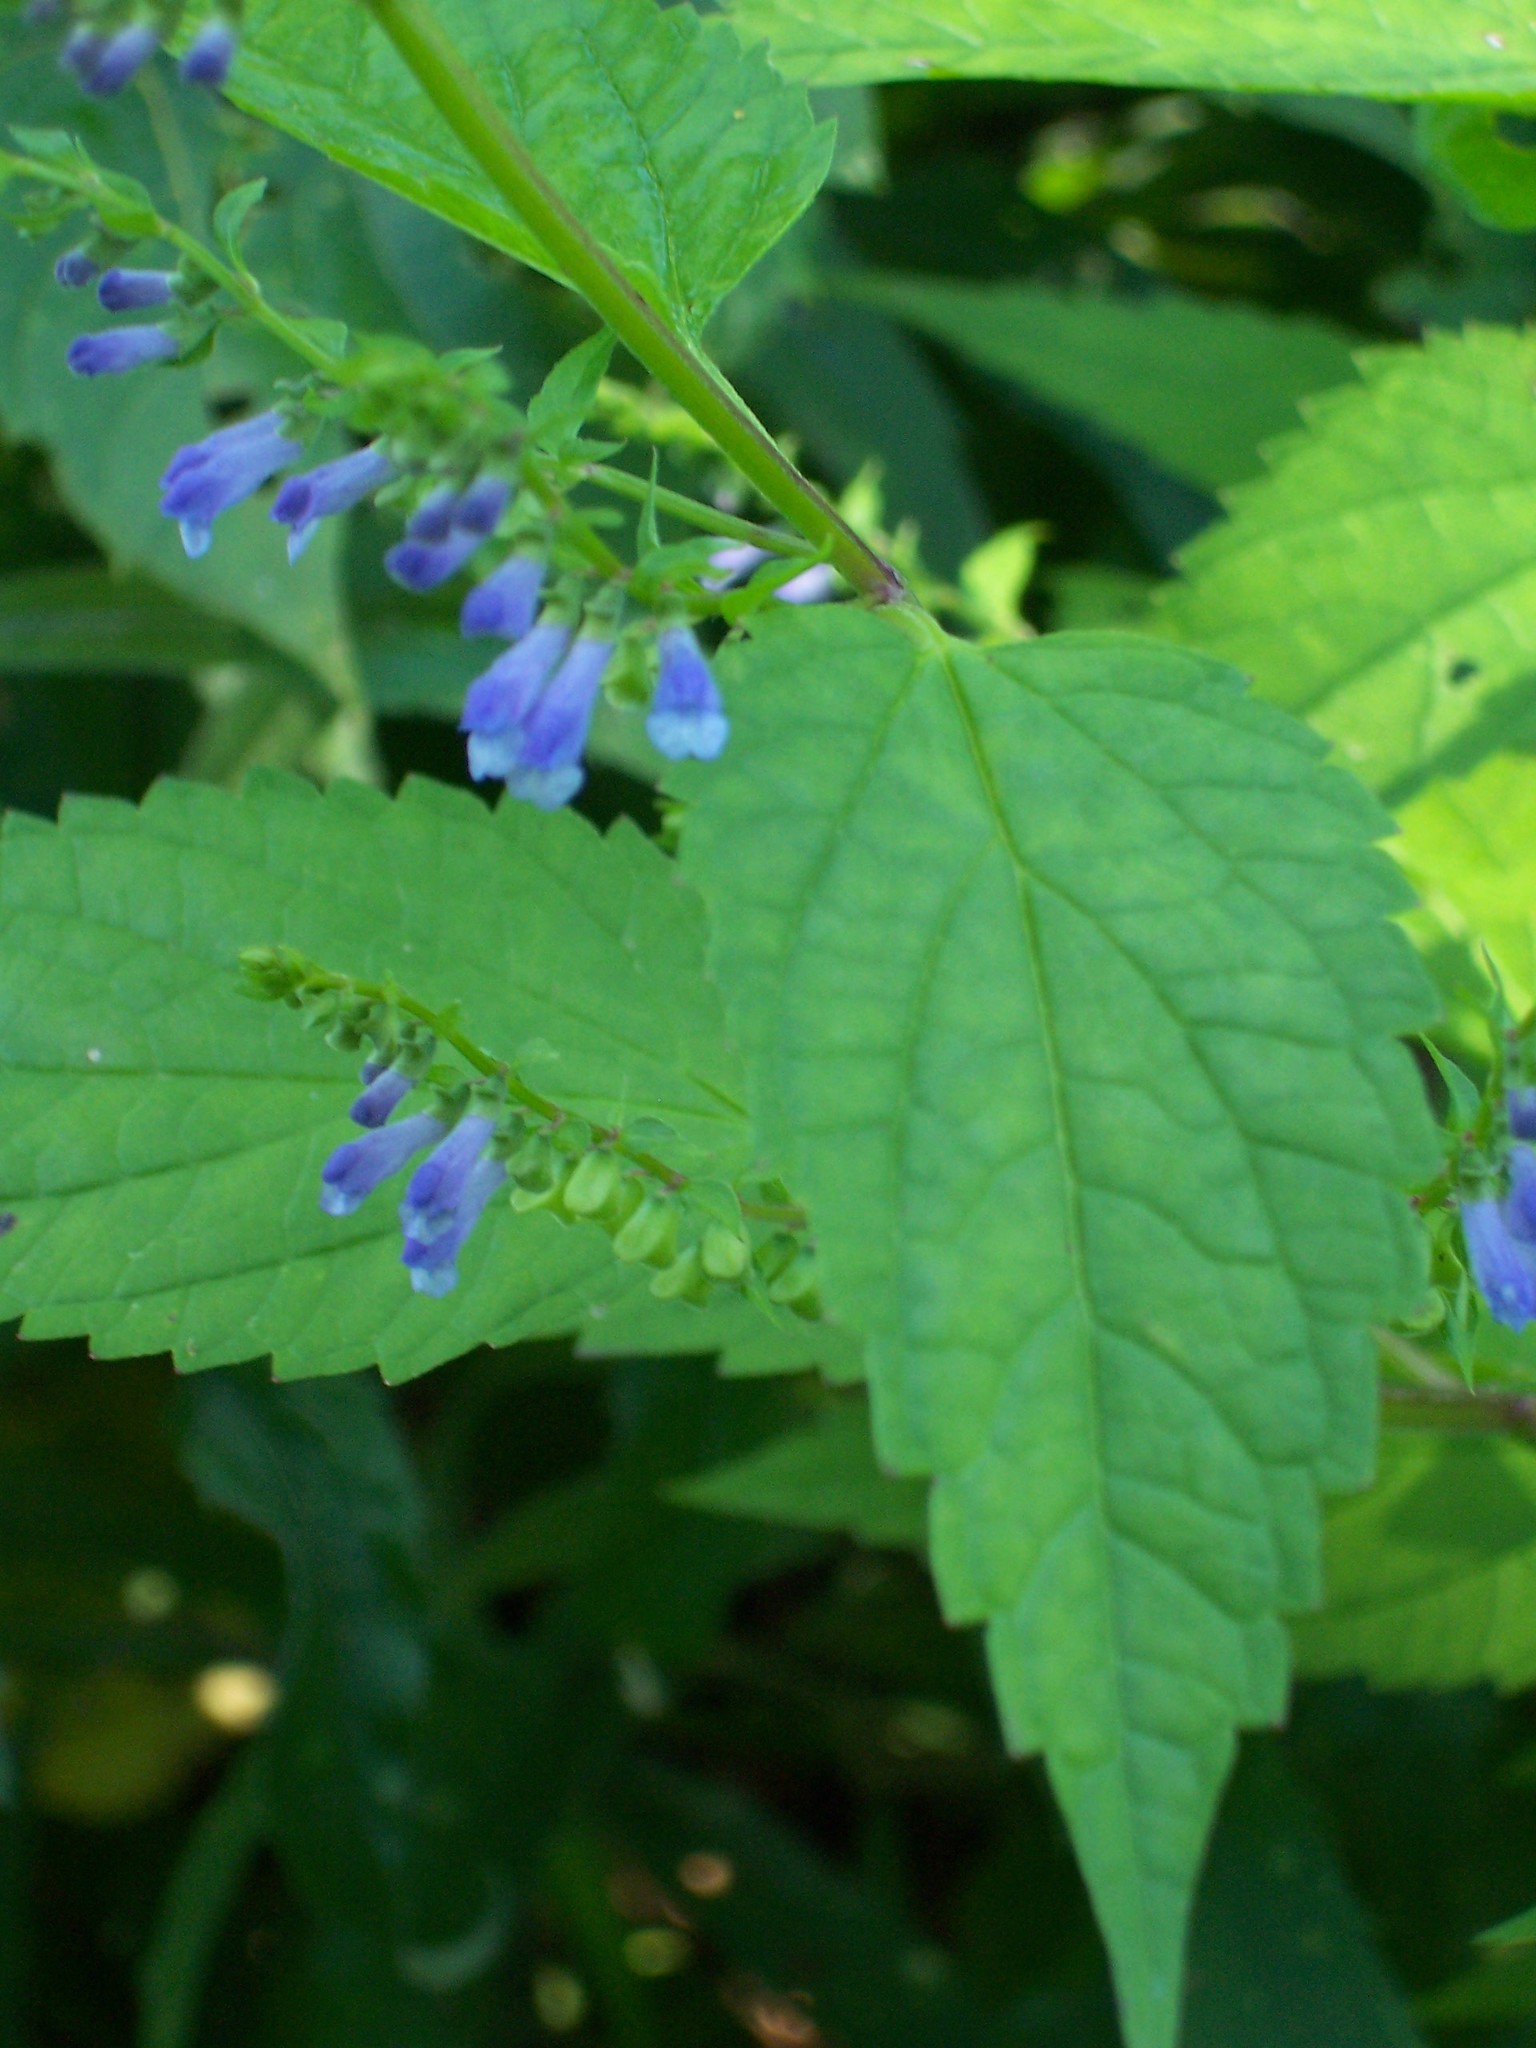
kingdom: Plantae
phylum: Tracheophyta
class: Magnoliopsida
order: Lamiales
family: Lamiaceae
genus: Scutellaria
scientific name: Scutellaria lateriflora
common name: Blue skullcap
